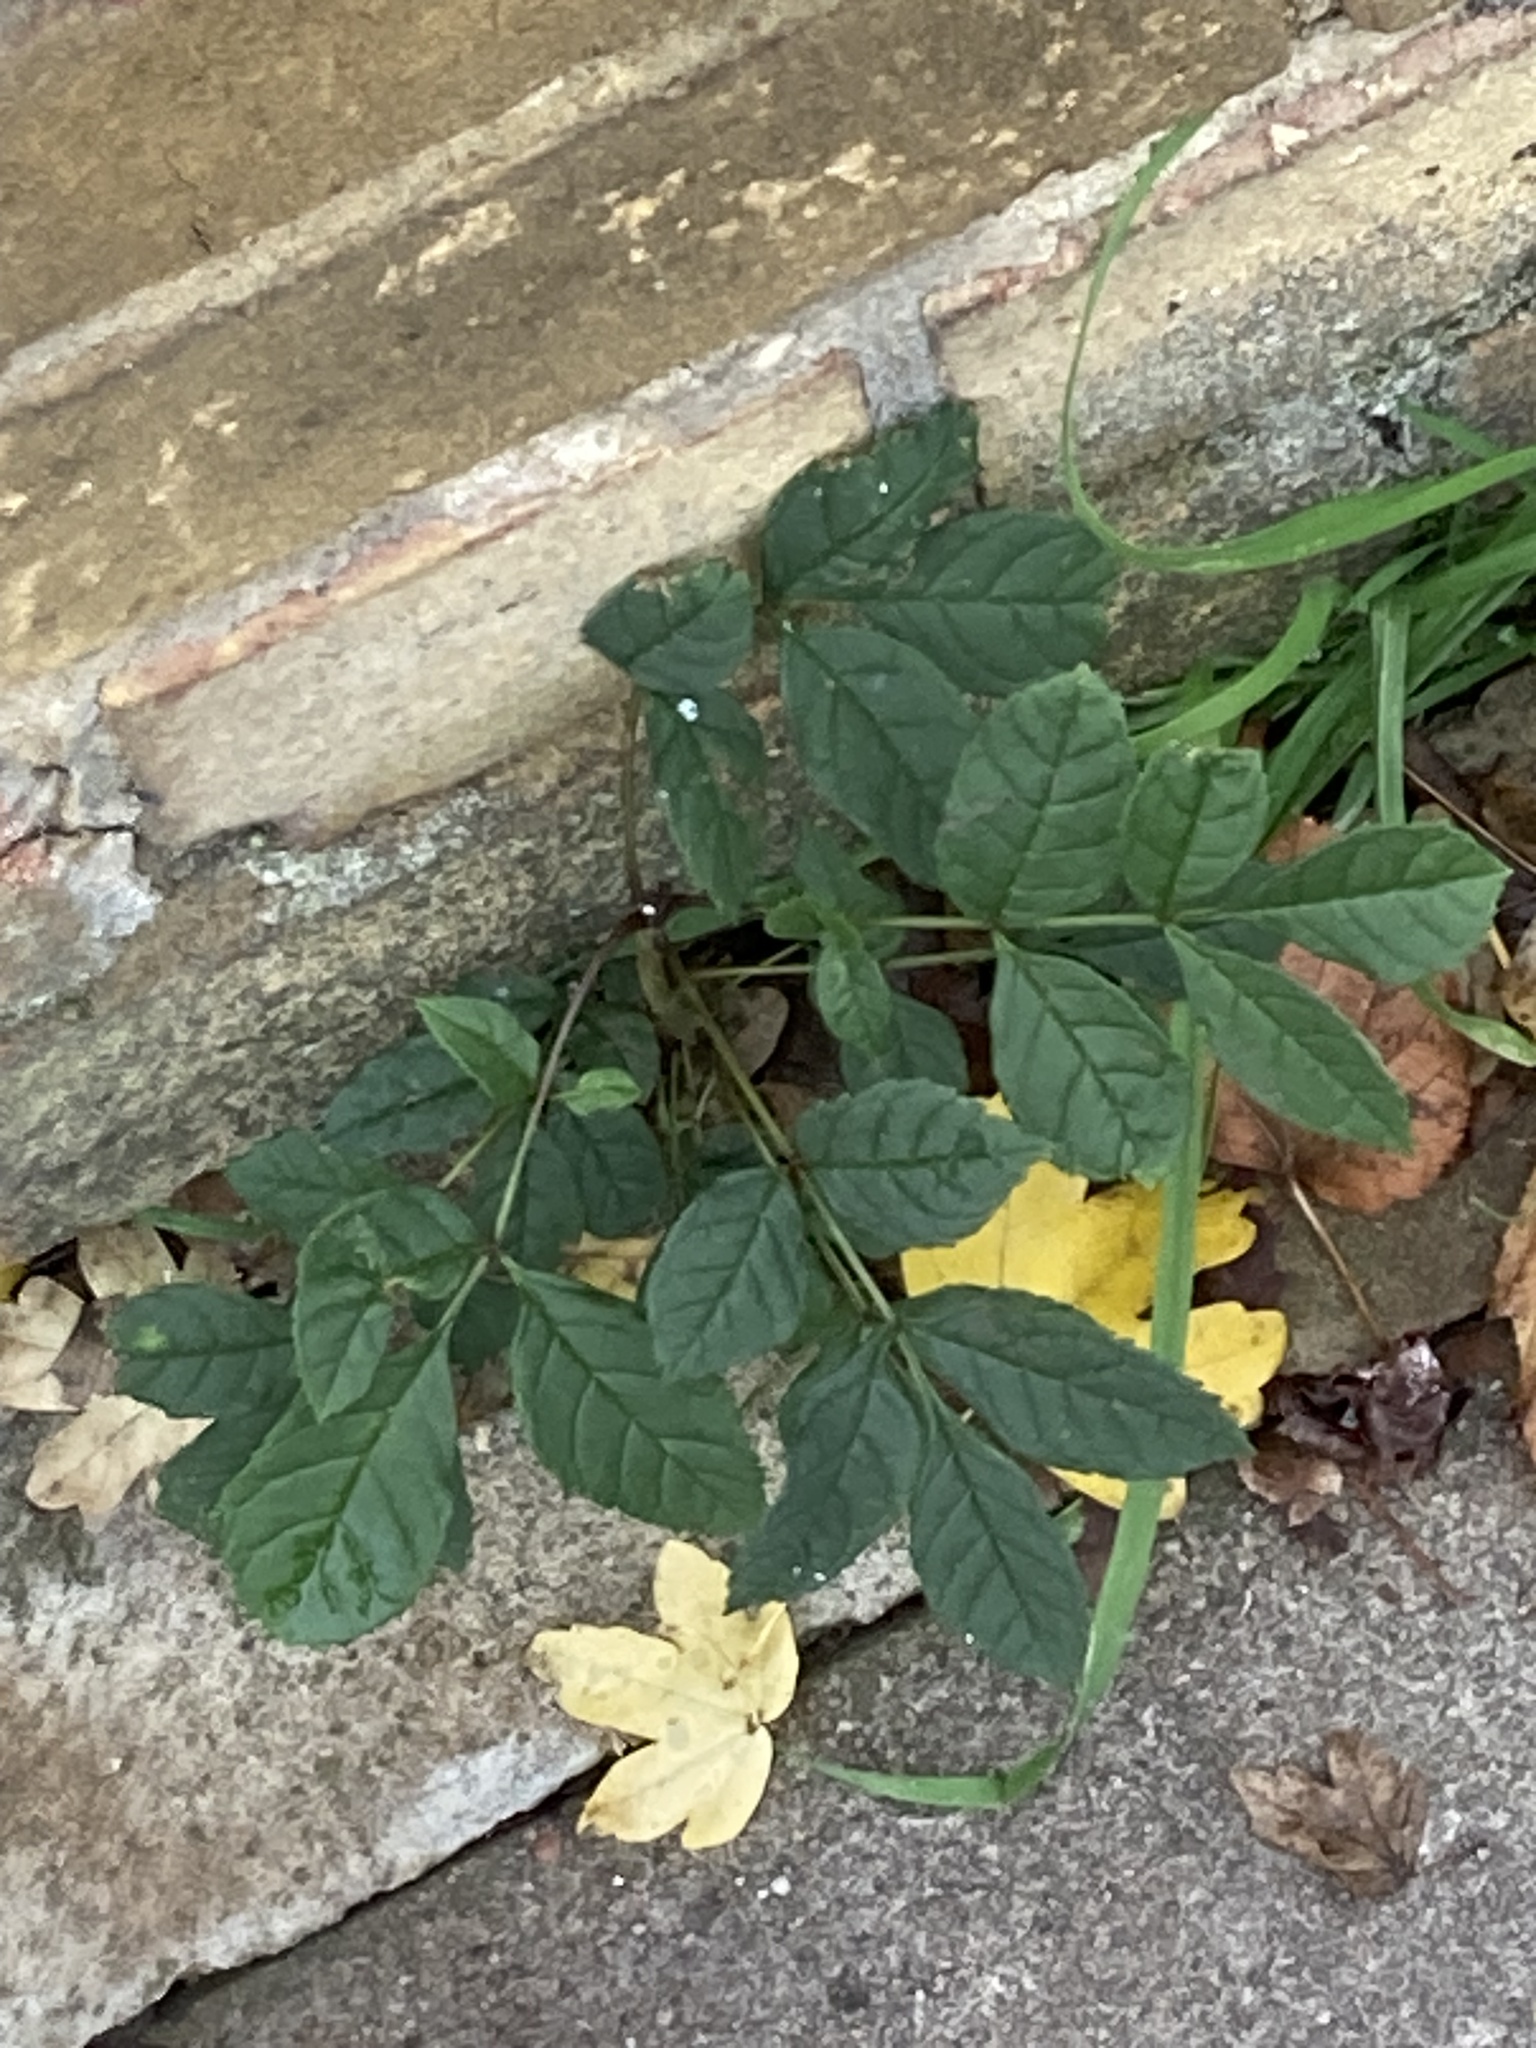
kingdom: Plantae
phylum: Tracheophyta
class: Magnoliopsida
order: Lamiales
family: Oleaceae
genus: Fraxinus
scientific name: Fraxinus excelsior
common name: European ash
